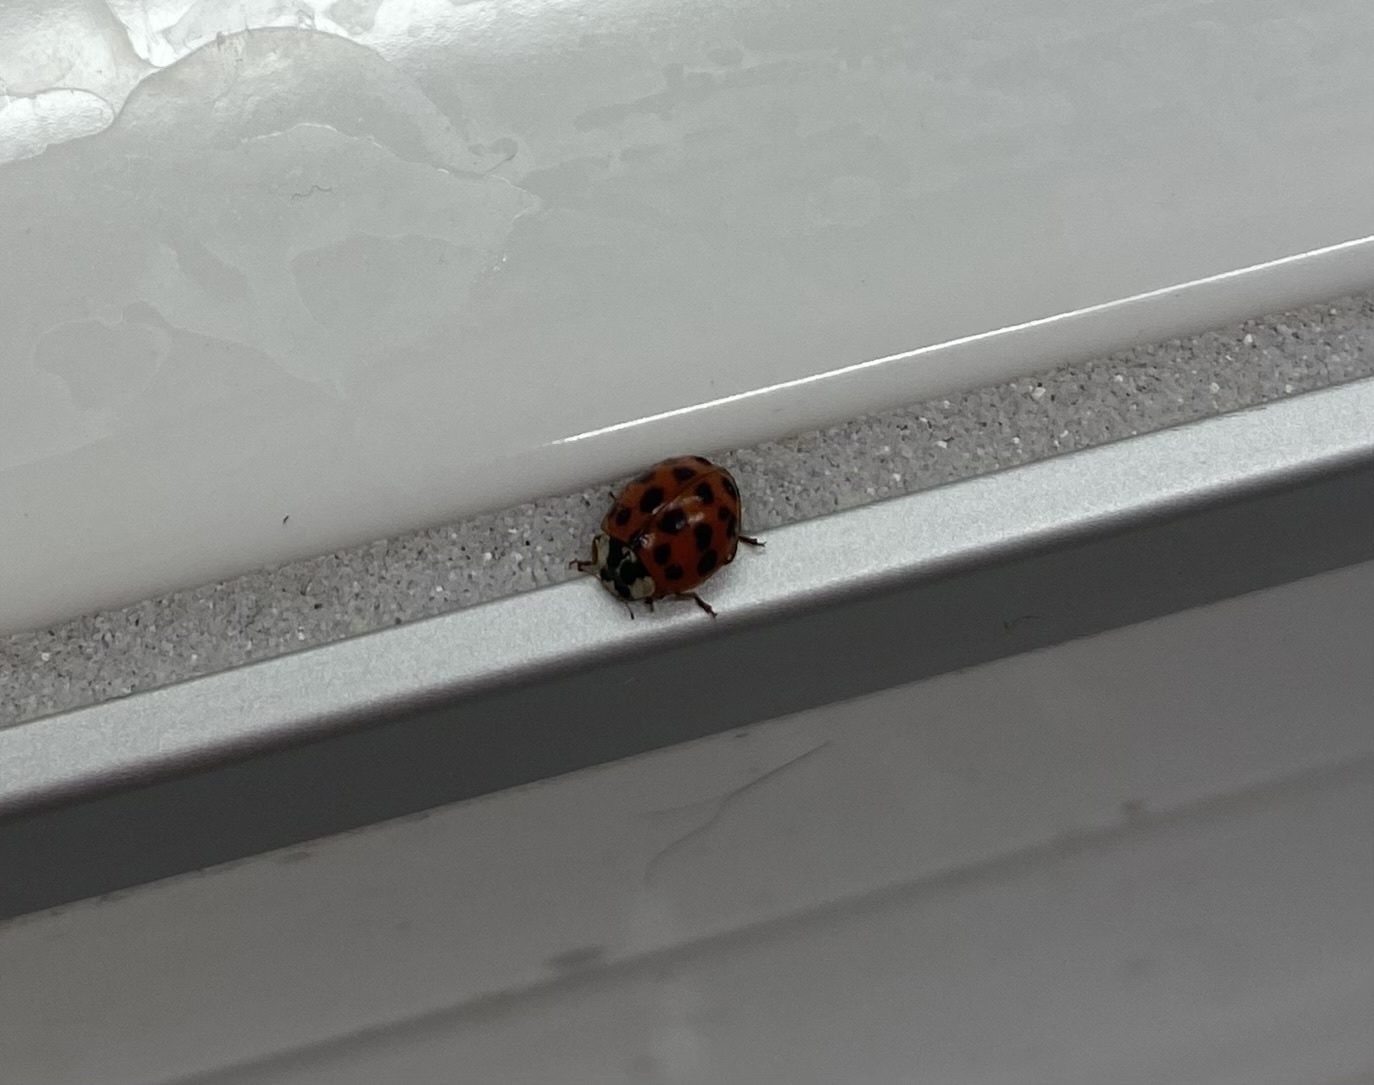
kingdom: Animalia
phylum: Arthropoda
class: Insecta
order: Coleoptera
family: Coccinellidae
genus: Harmonia
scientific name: Harmonia axyridis
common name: Harlequin ladybird
